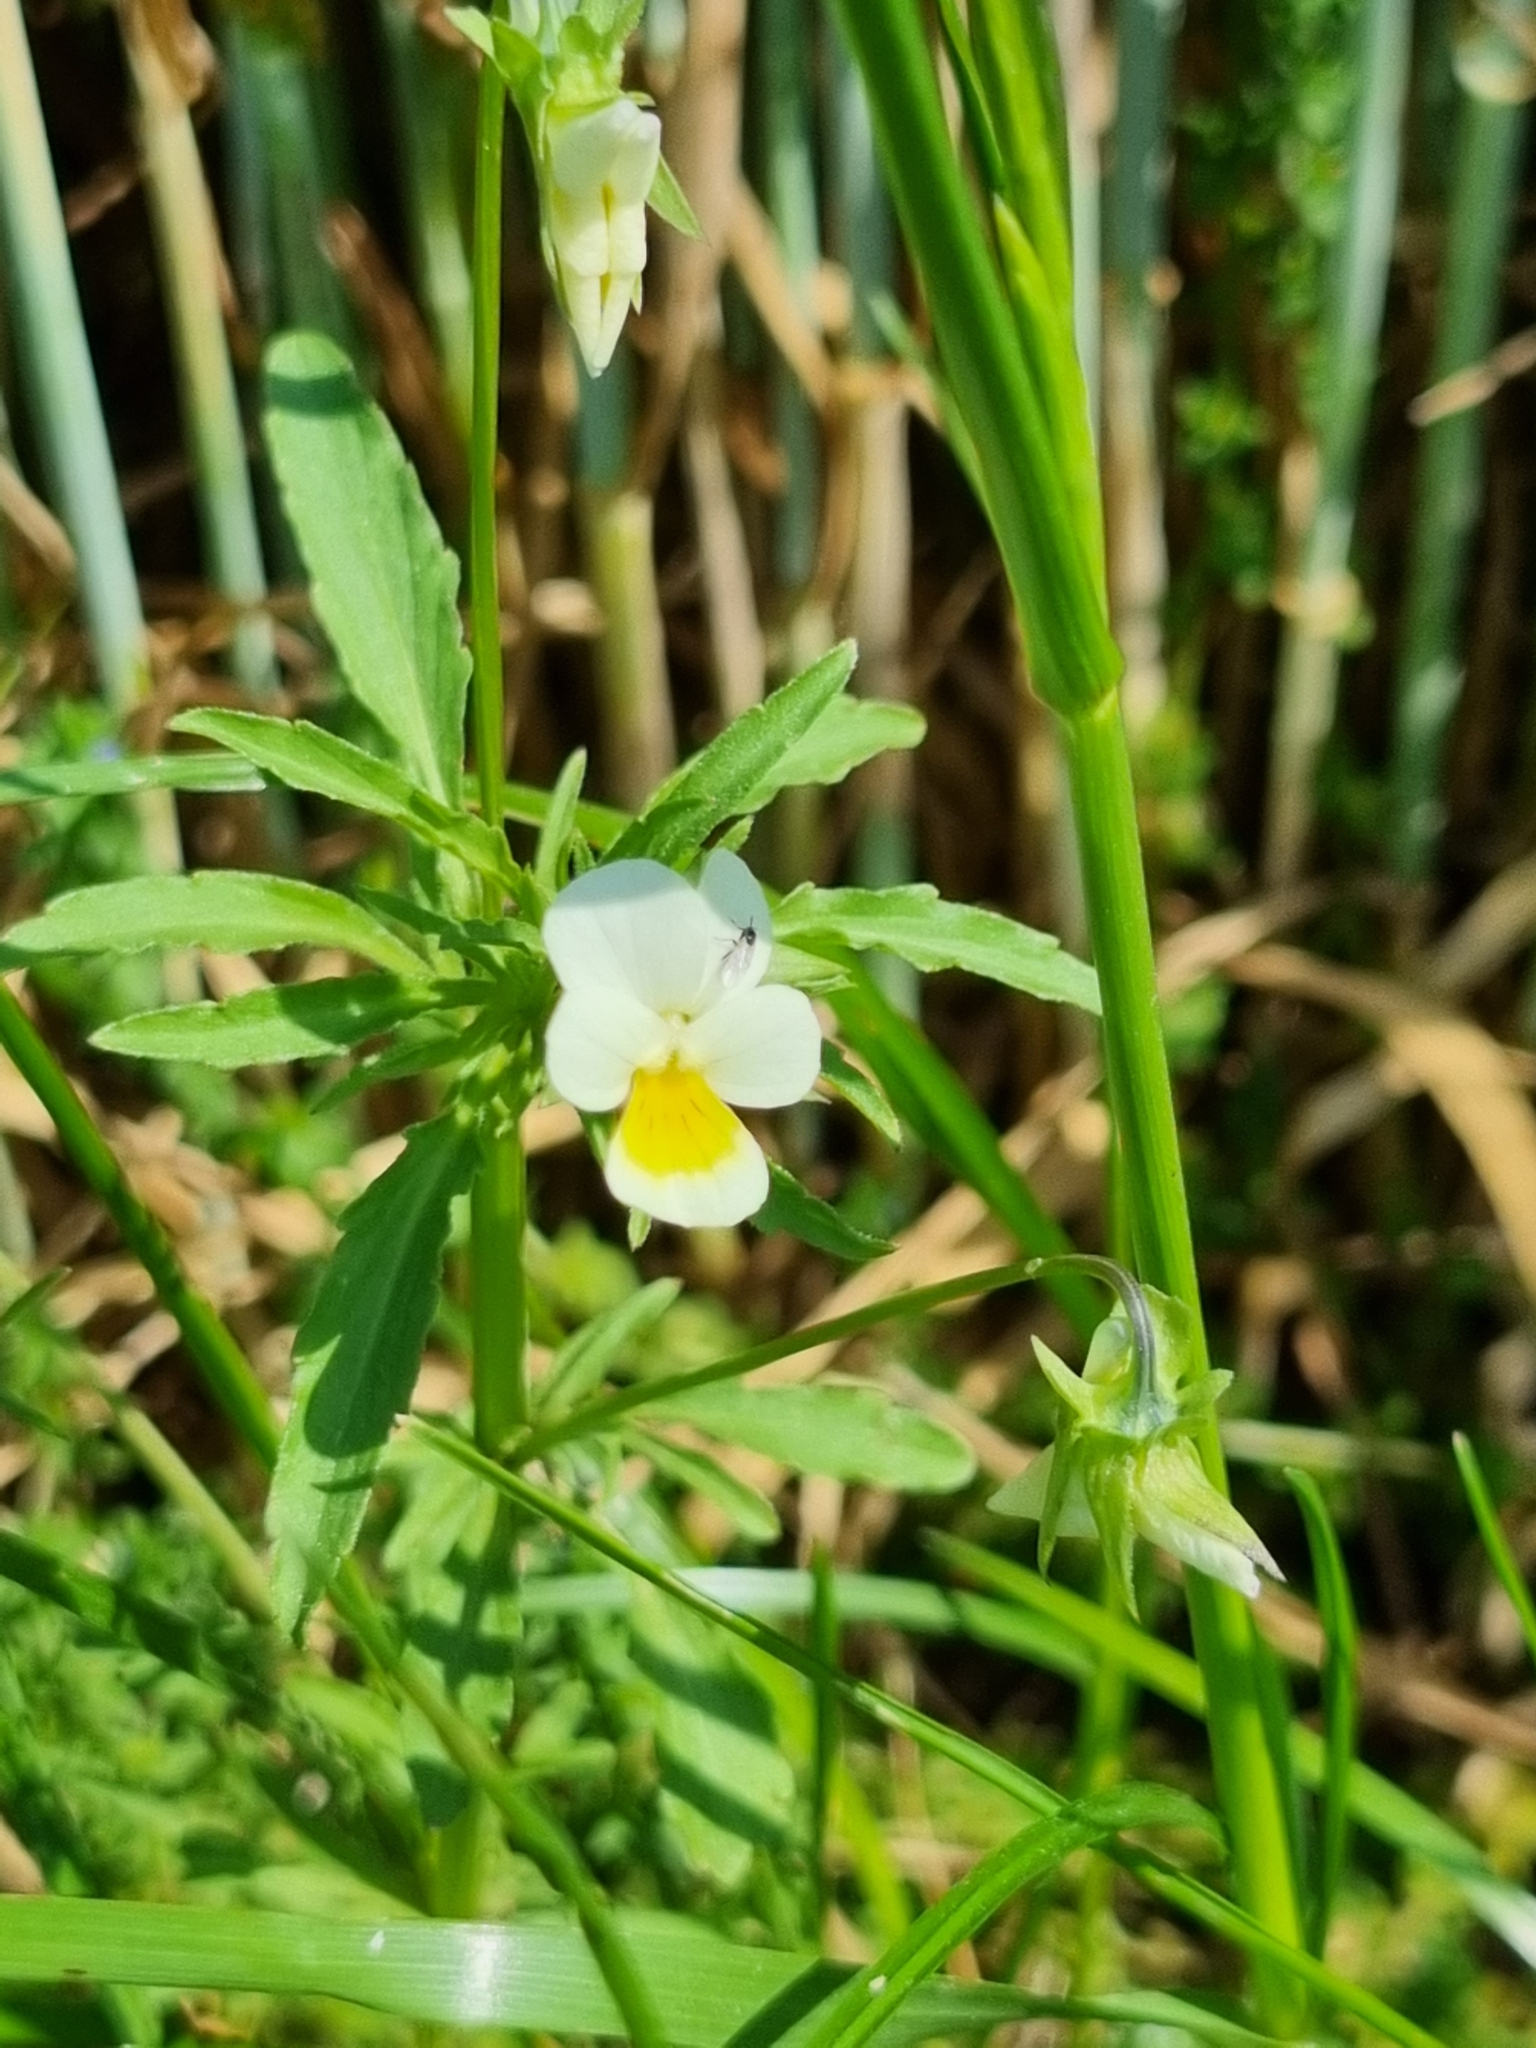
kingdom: Plantae
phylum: Tracheophyta
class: Magnoliopsida
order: Malpighiales
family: Violaceae
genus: Viola
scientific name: Viola arvensis
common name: Field pansy
